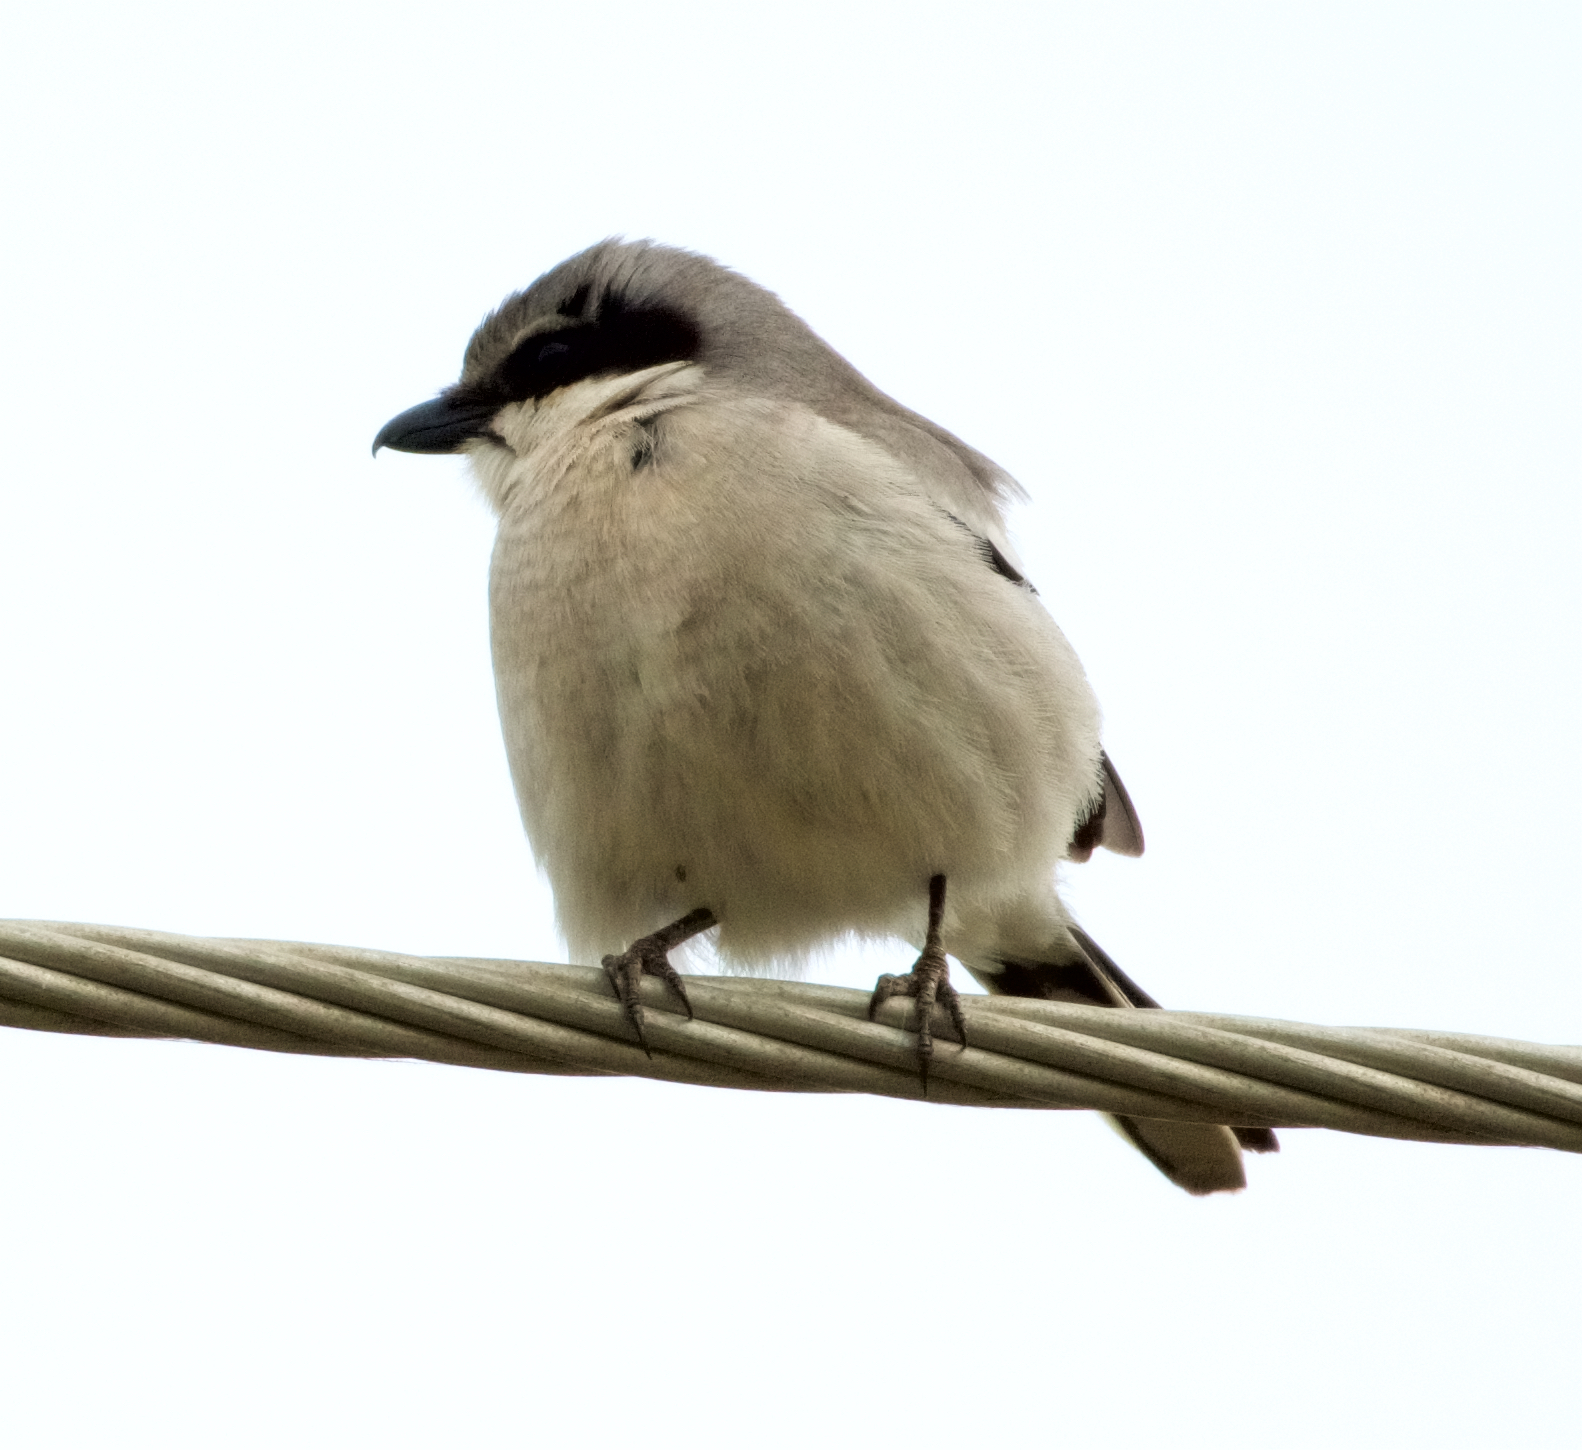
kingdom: Animalia
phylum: Chordata
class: Aves
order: Passeriformes
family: Laniidae
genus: Lanius
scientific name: Lanius ludovicianus
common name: Loggerhead shrike
